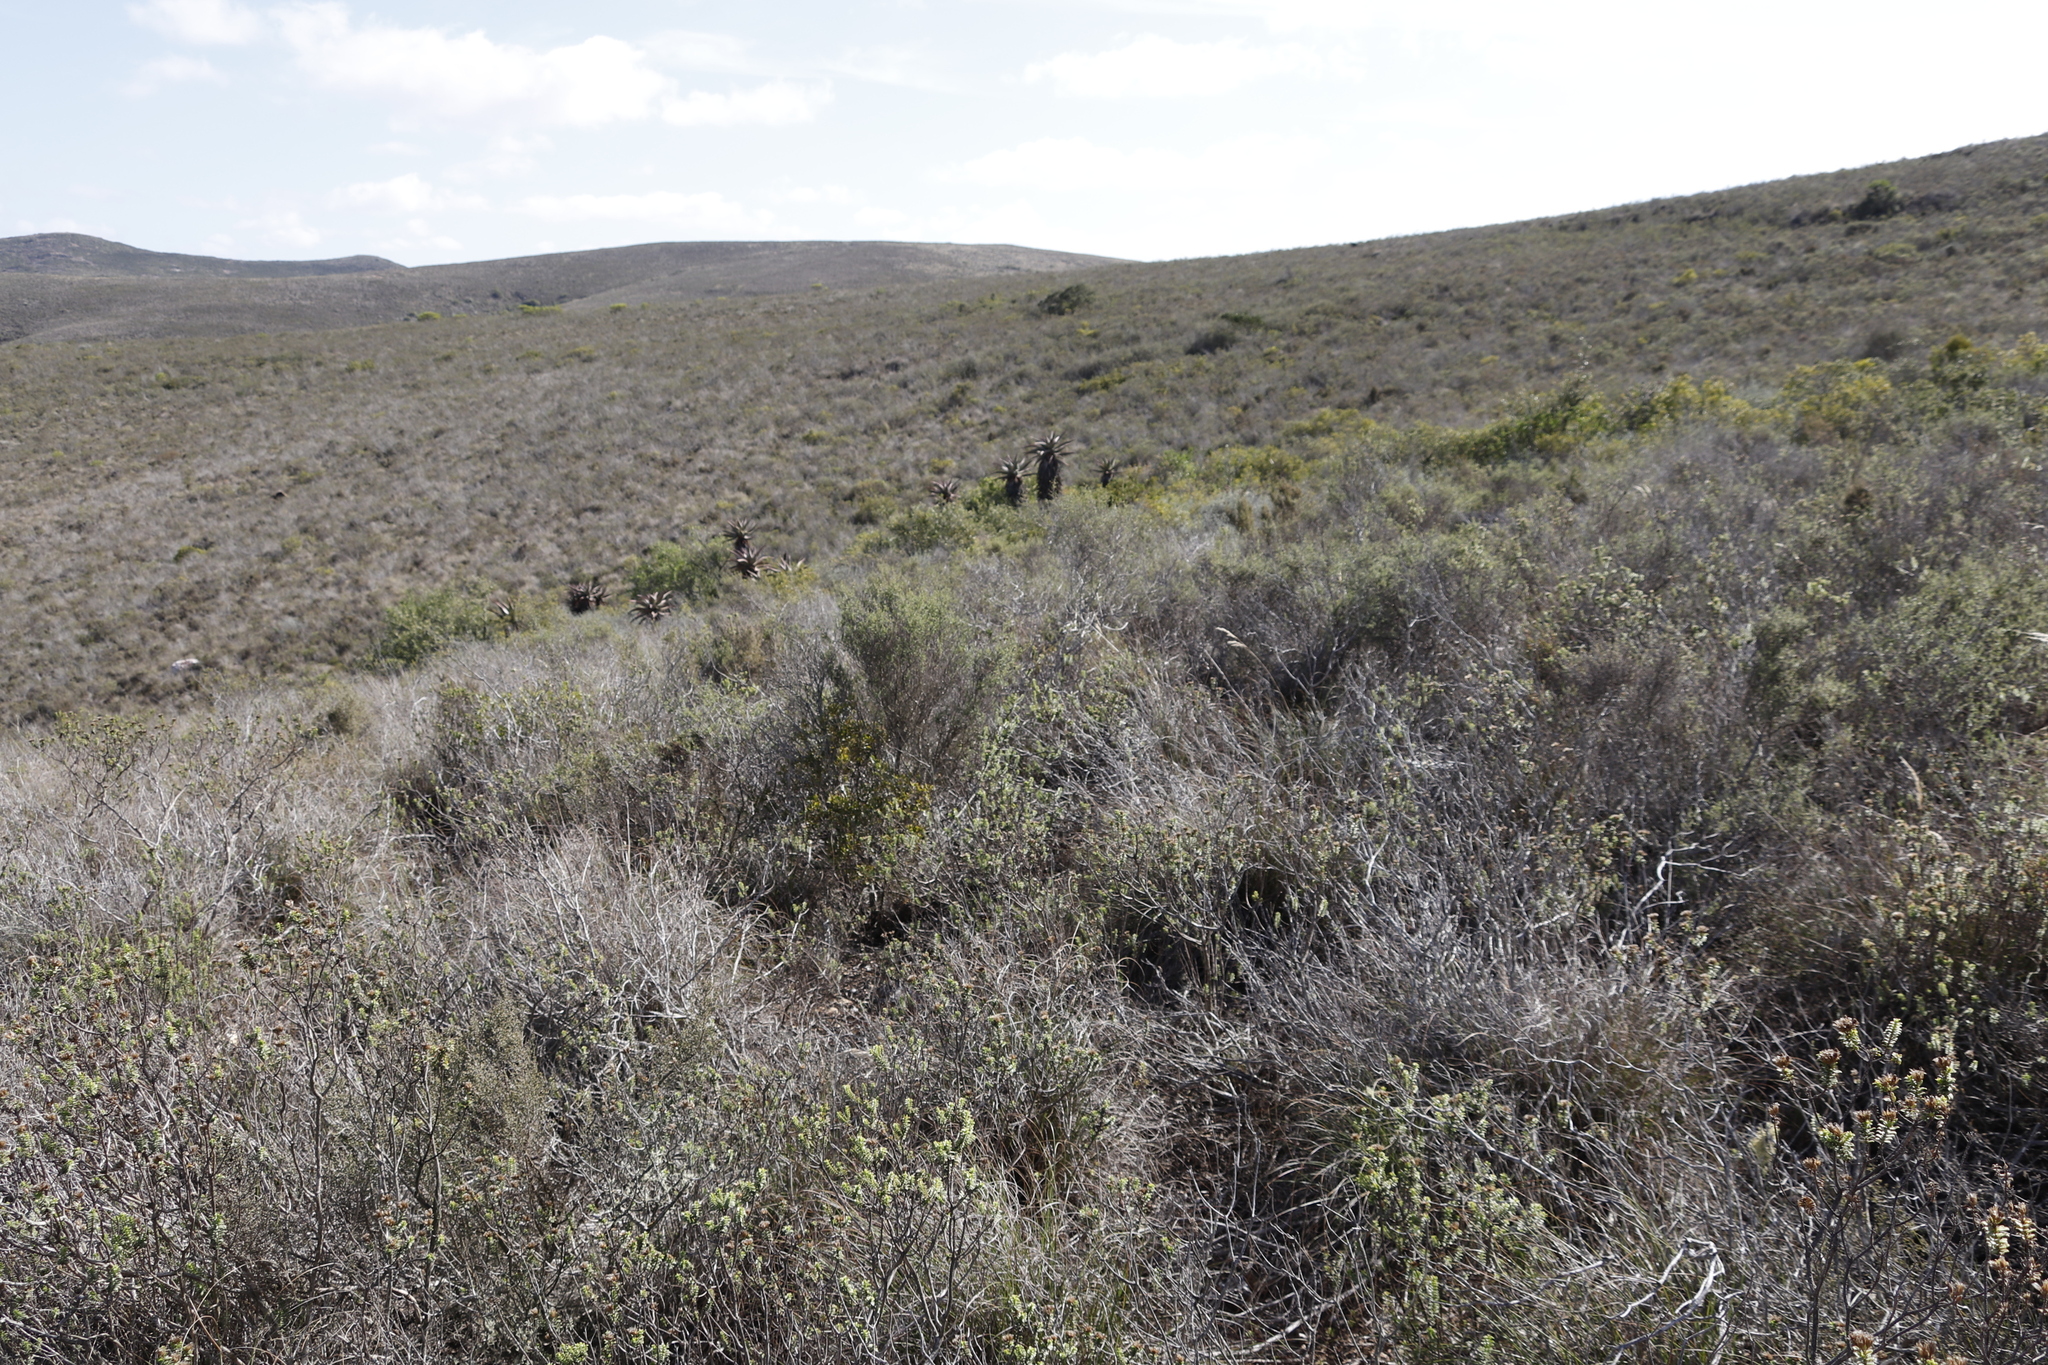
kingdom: Plantae
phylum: Tracheophyta
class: Liliopsida
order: Asparagales
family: Asphodelaceae
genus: Aloe
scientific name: Aloe ferox
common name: Bitter aloe
